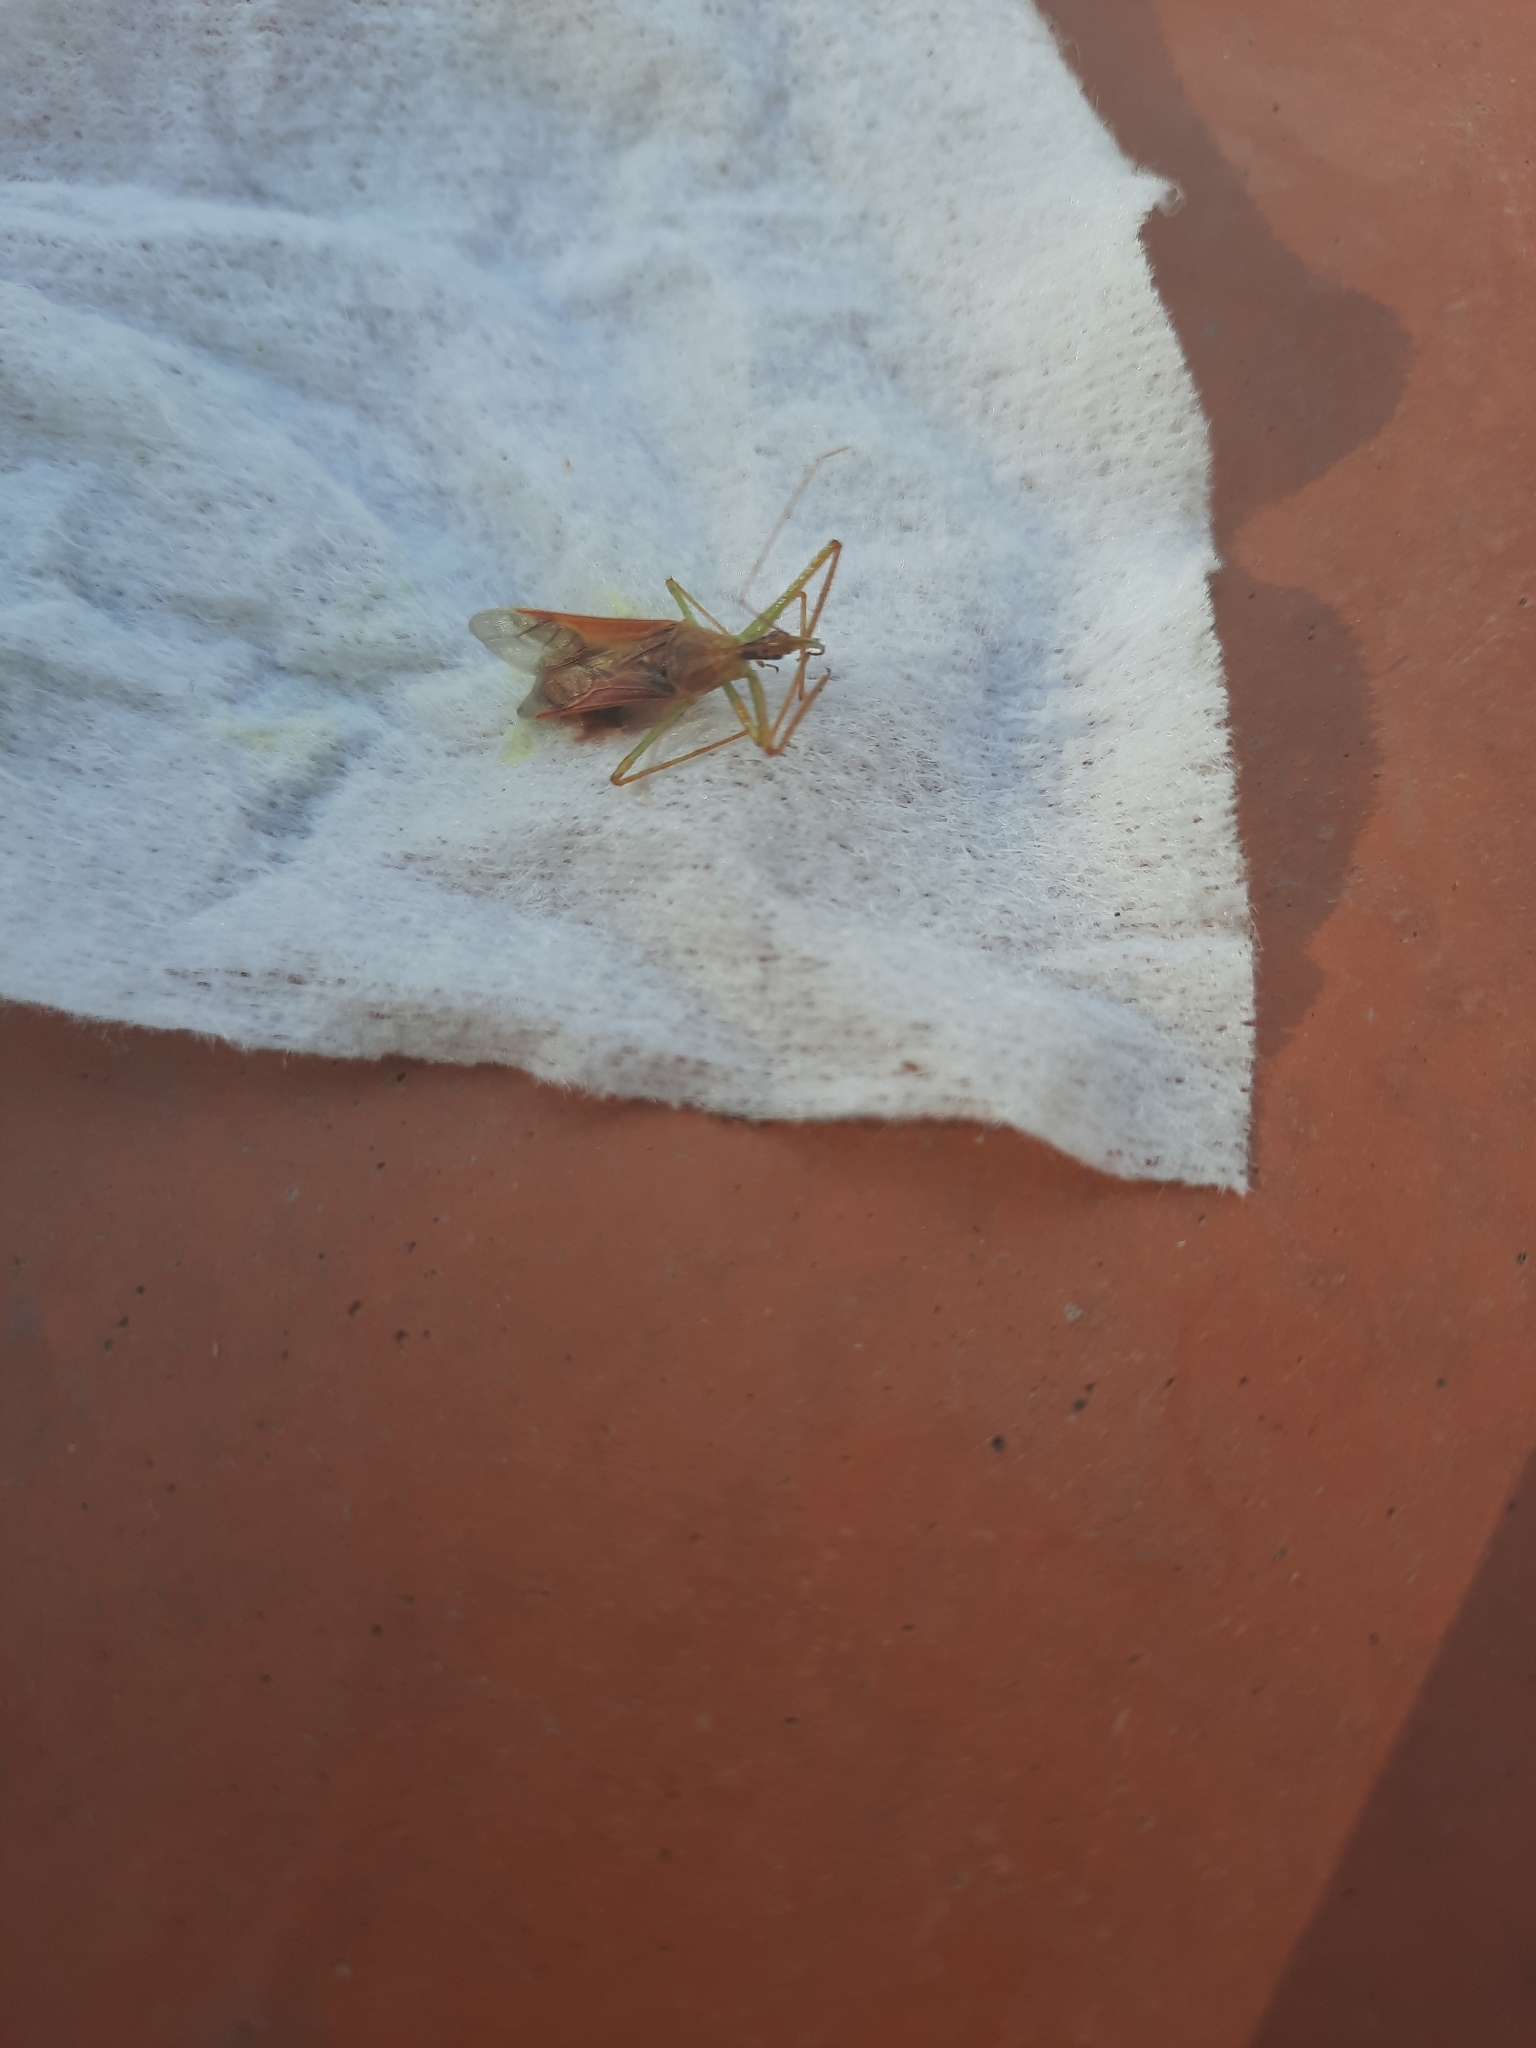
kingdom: Animalia
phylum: Arthropoda
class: Insecta
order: Hemiptera
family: Reduviidae
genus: Zelus
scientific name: Zelus renardii
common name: Assassin bug
